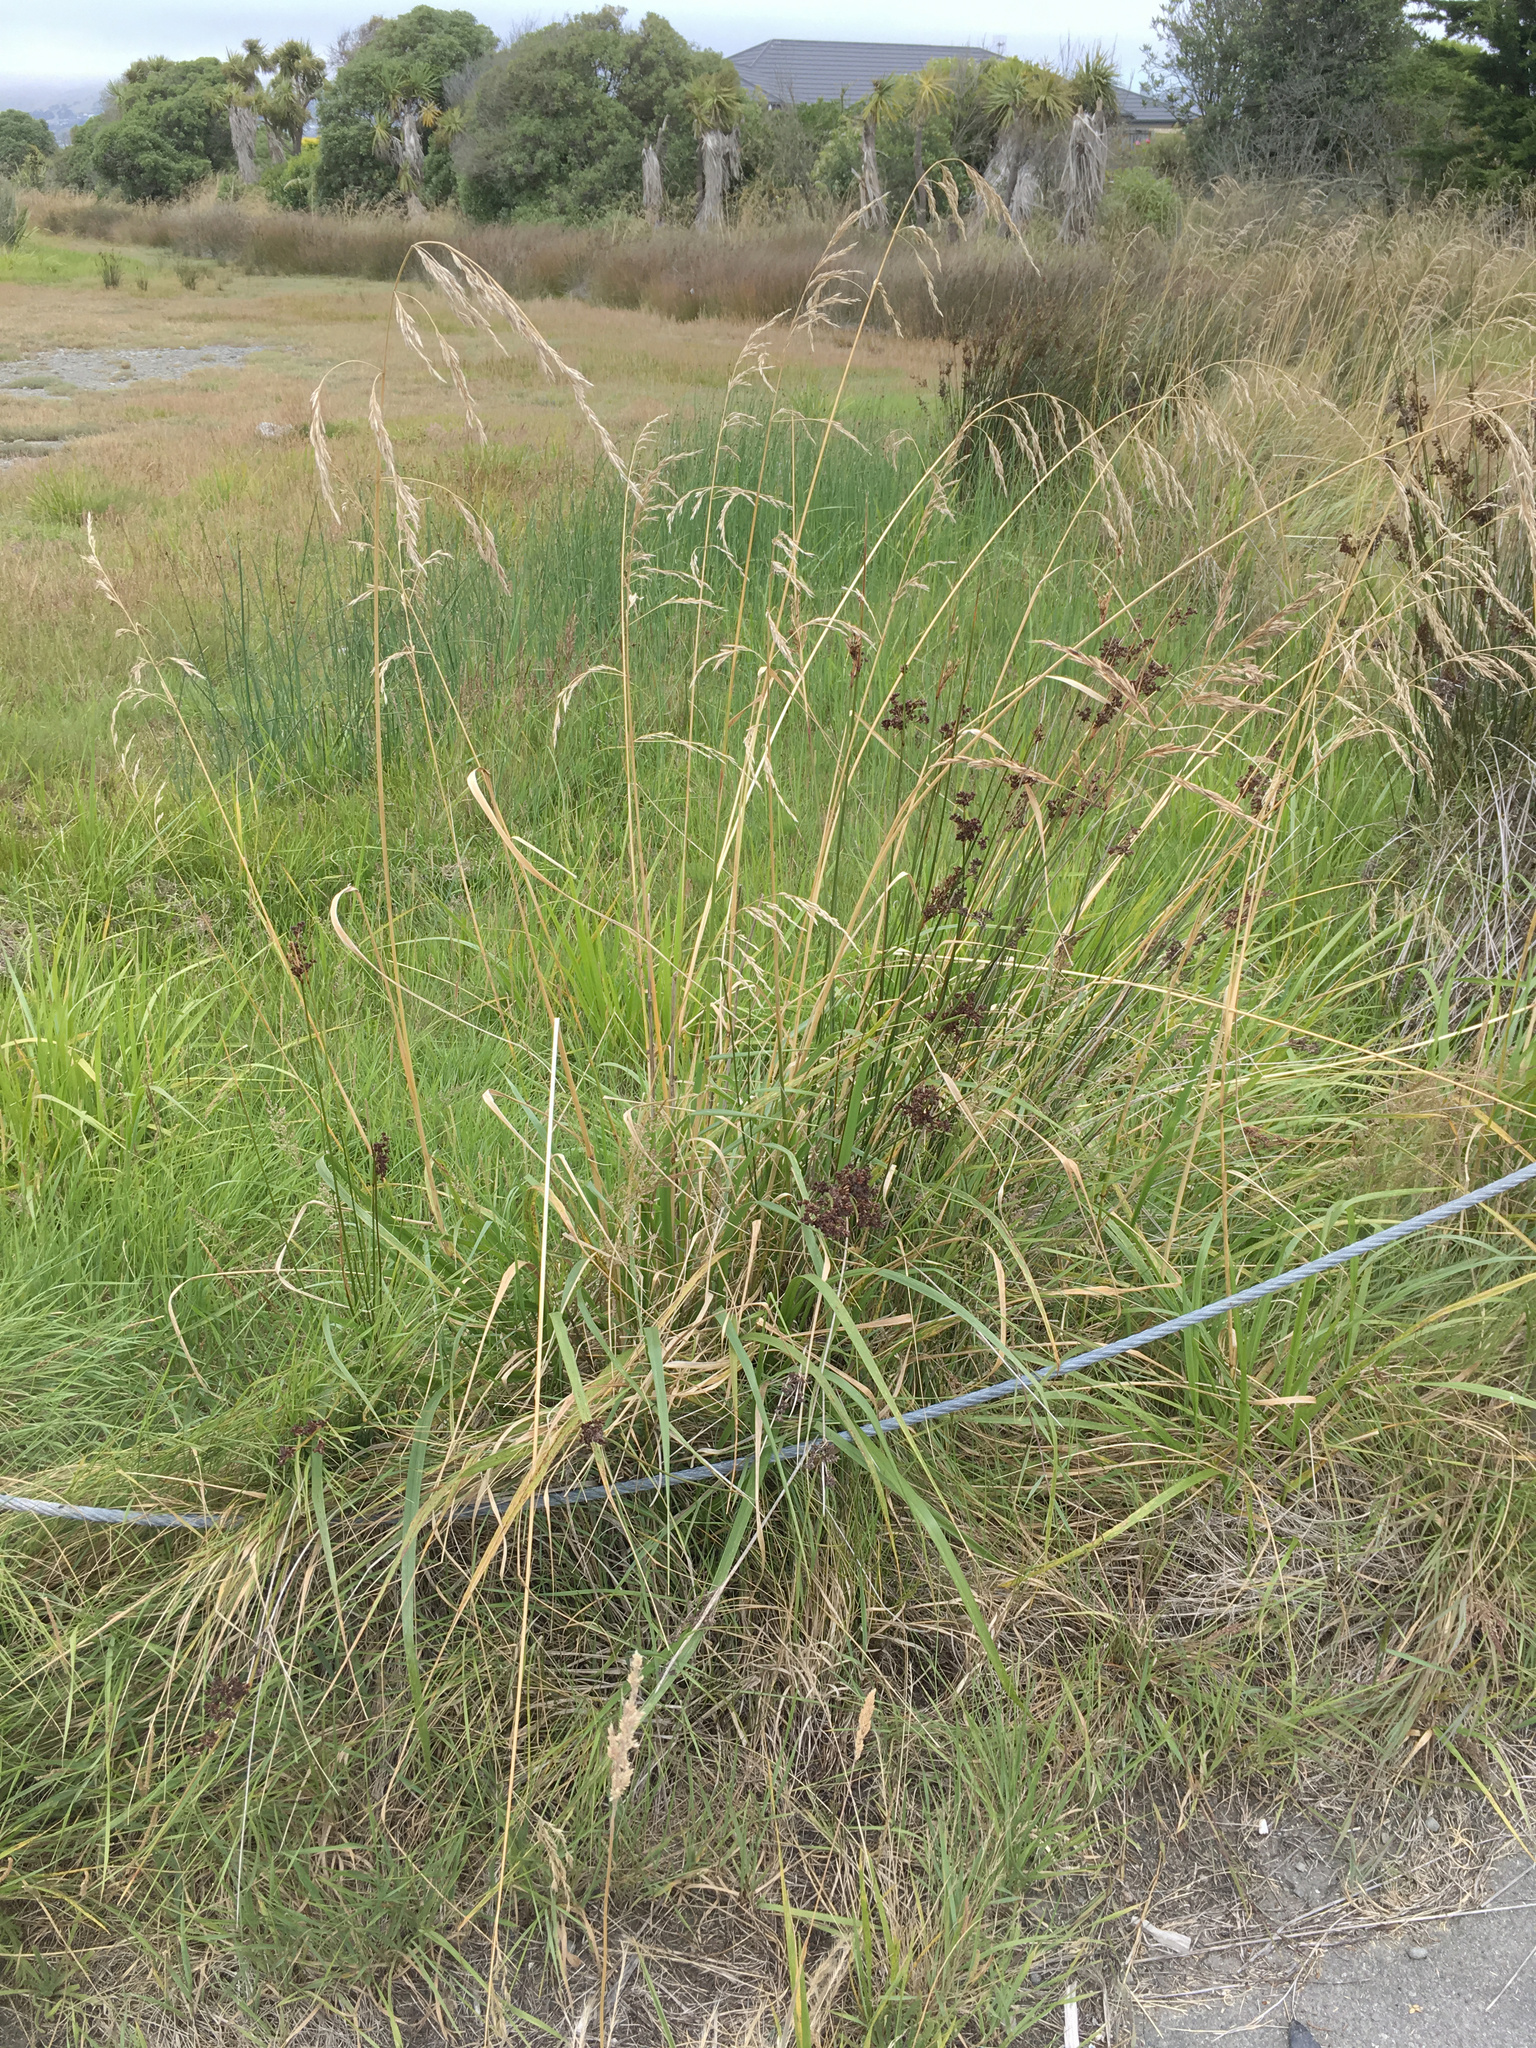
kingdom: Plantae
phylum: Tracheophyta
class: Liliopsida
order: Poales
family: Juncaceae
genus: Juncus
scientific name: Juncus kraussii
